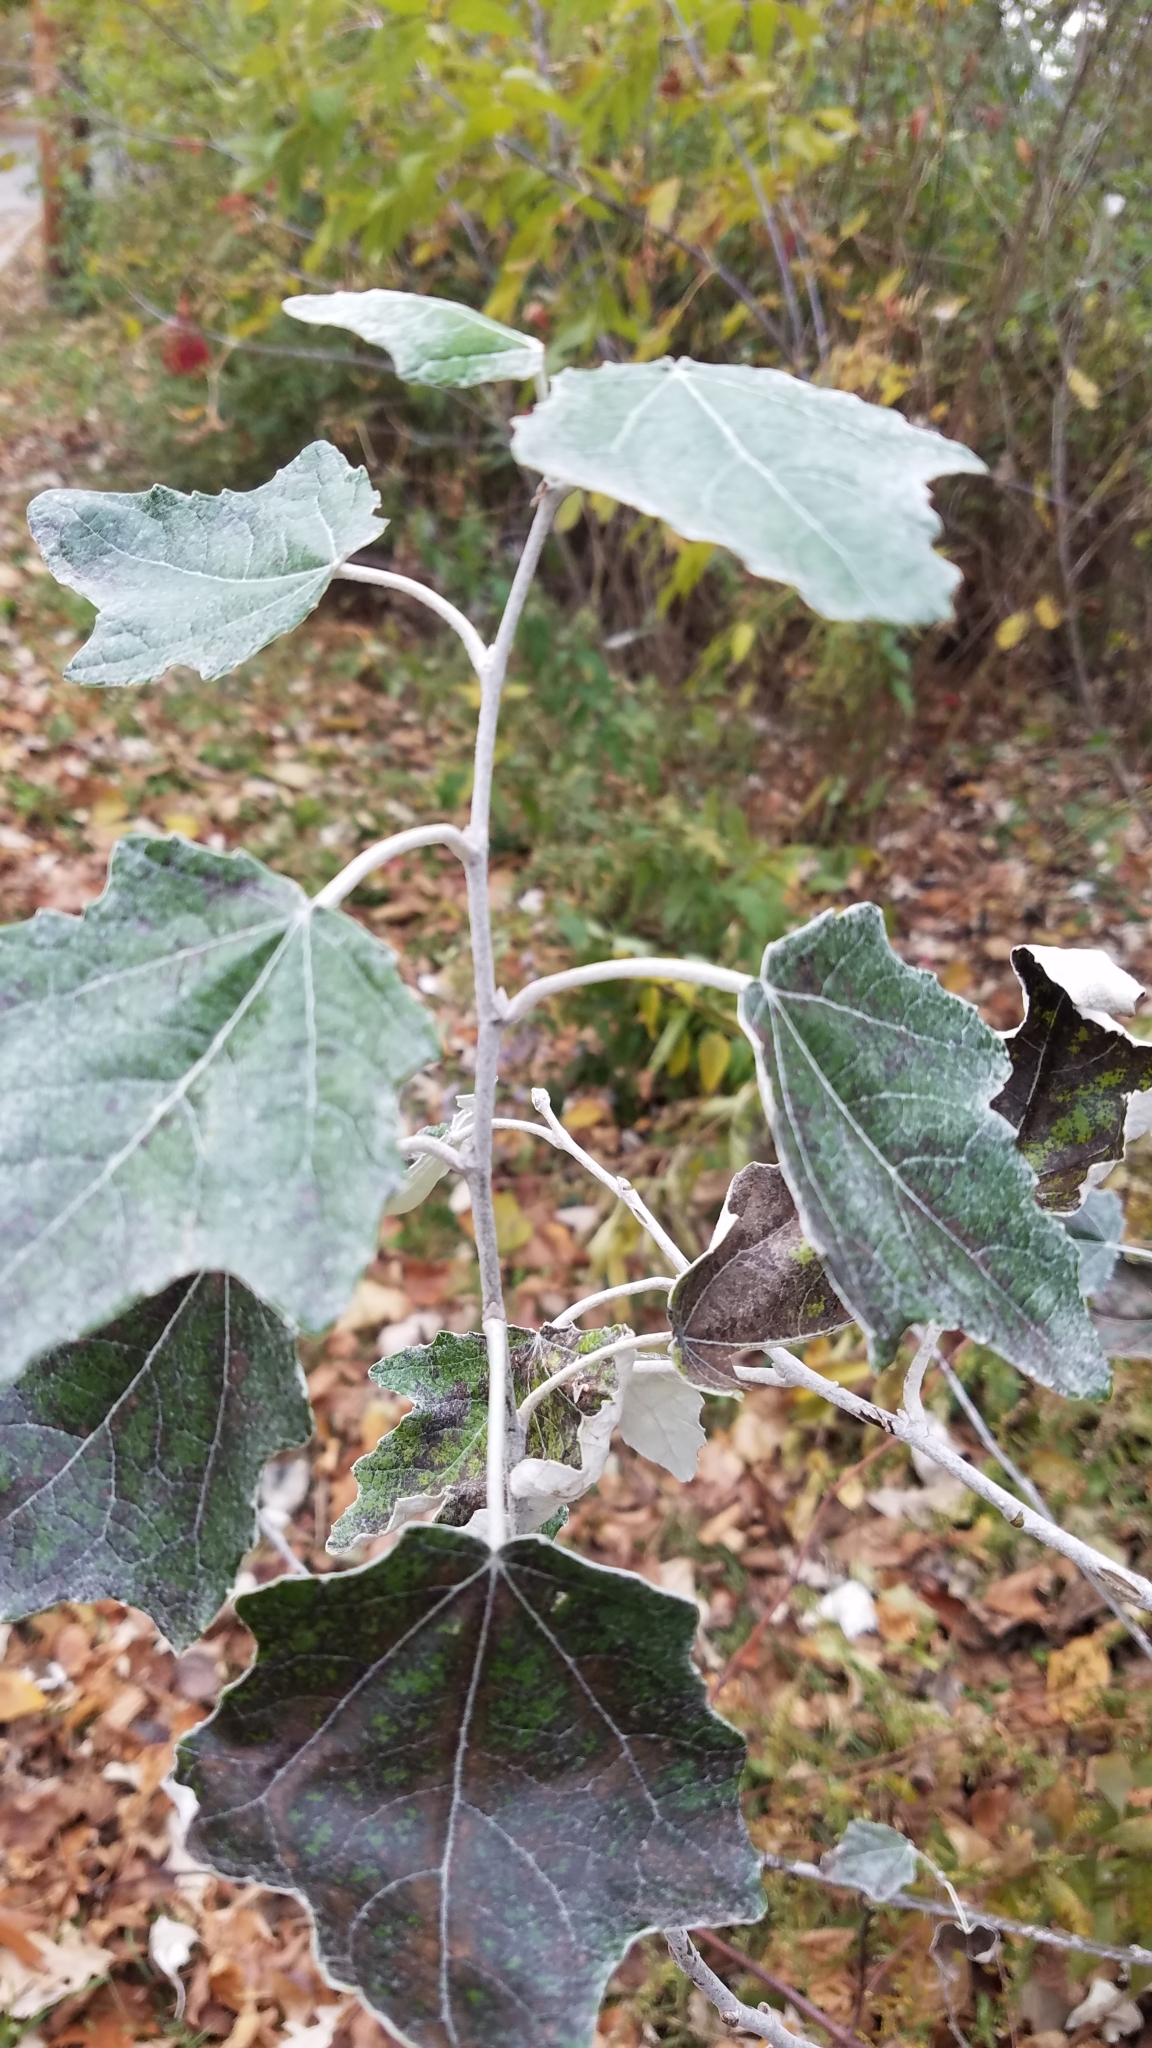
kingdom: Plantae
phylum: Tracheophyta
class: Magnoliopsida
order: Malpighiales
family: Salicaceae
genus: Populus
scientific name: Populus alba
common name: White poplar
